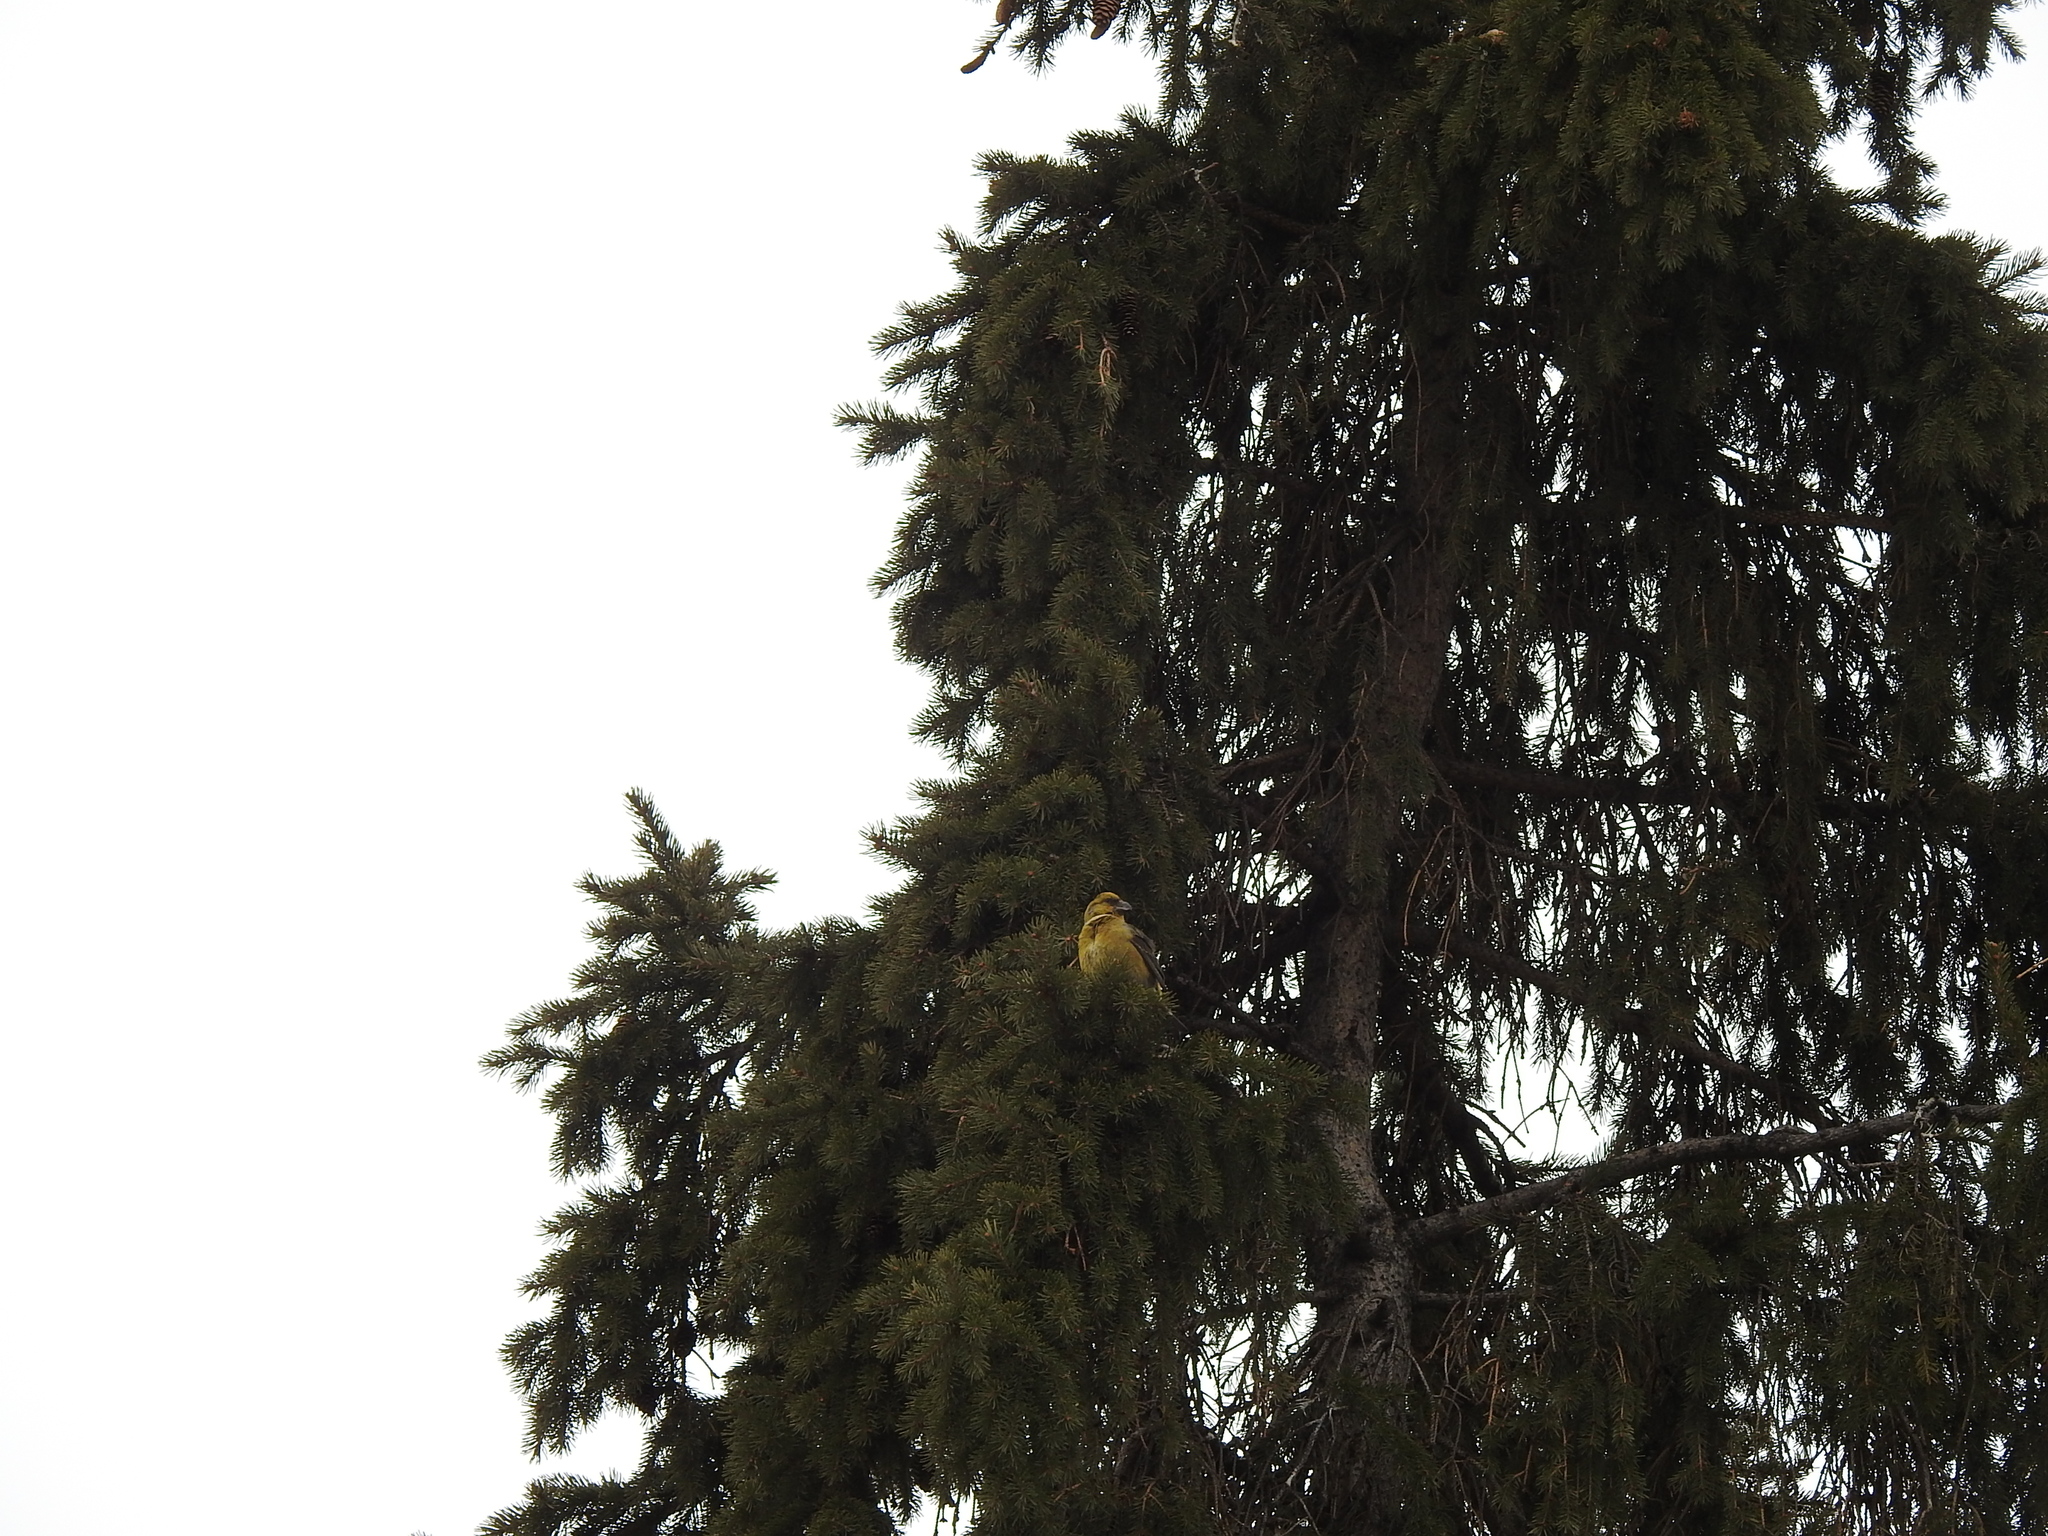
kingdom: Animalia
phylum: Chordata
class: Aves
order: Passeriformes
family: Fringillidae
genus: Loxia
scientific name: Loxia curvirostra
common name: Red crossbill
